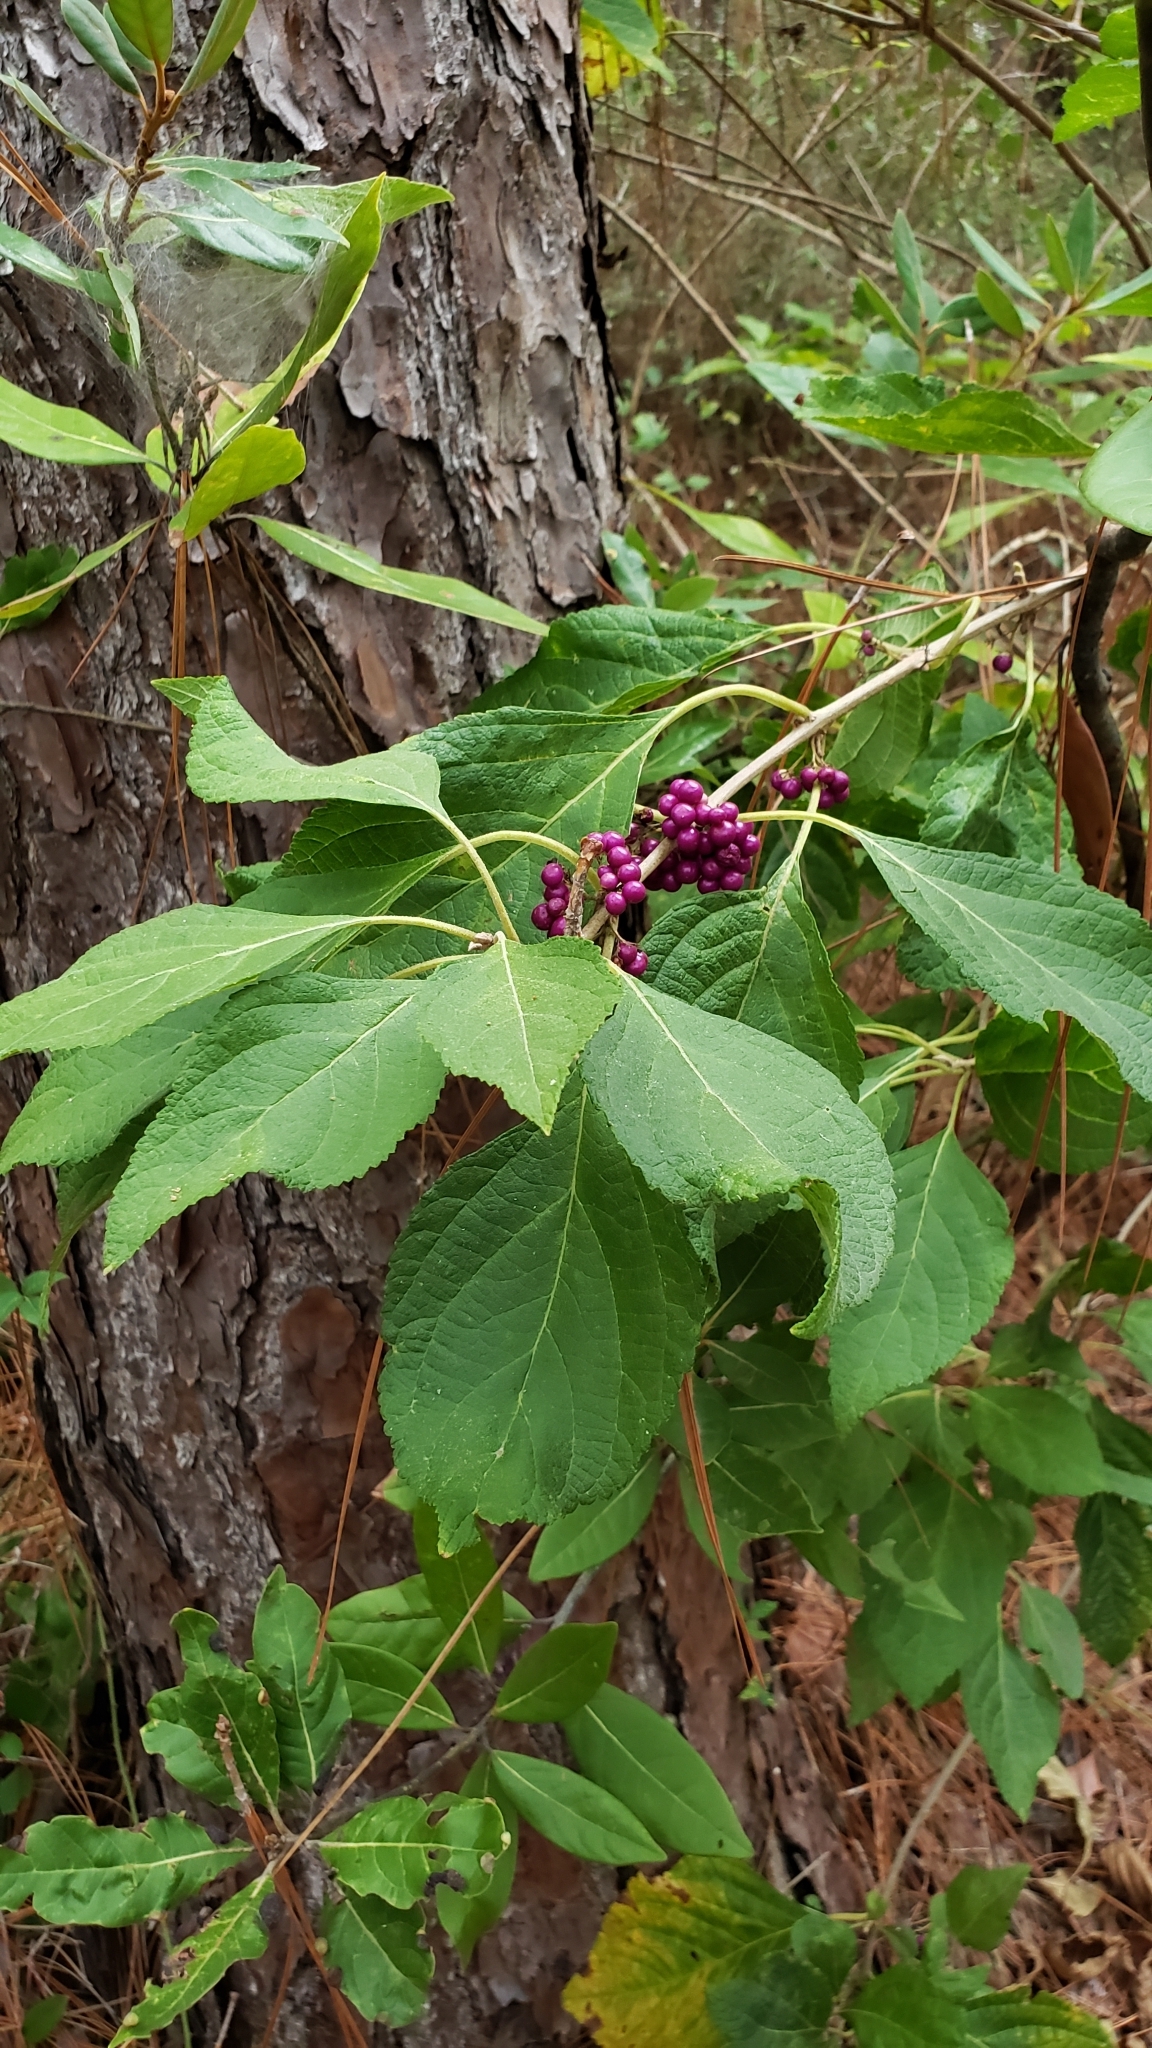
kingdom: Plantae
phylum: Tracheophyta
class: Magnoliopsida
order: Lamiales
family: Lamiaceae
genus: Callicarpa
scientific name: Callicarpa americana
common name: American beautyberry
